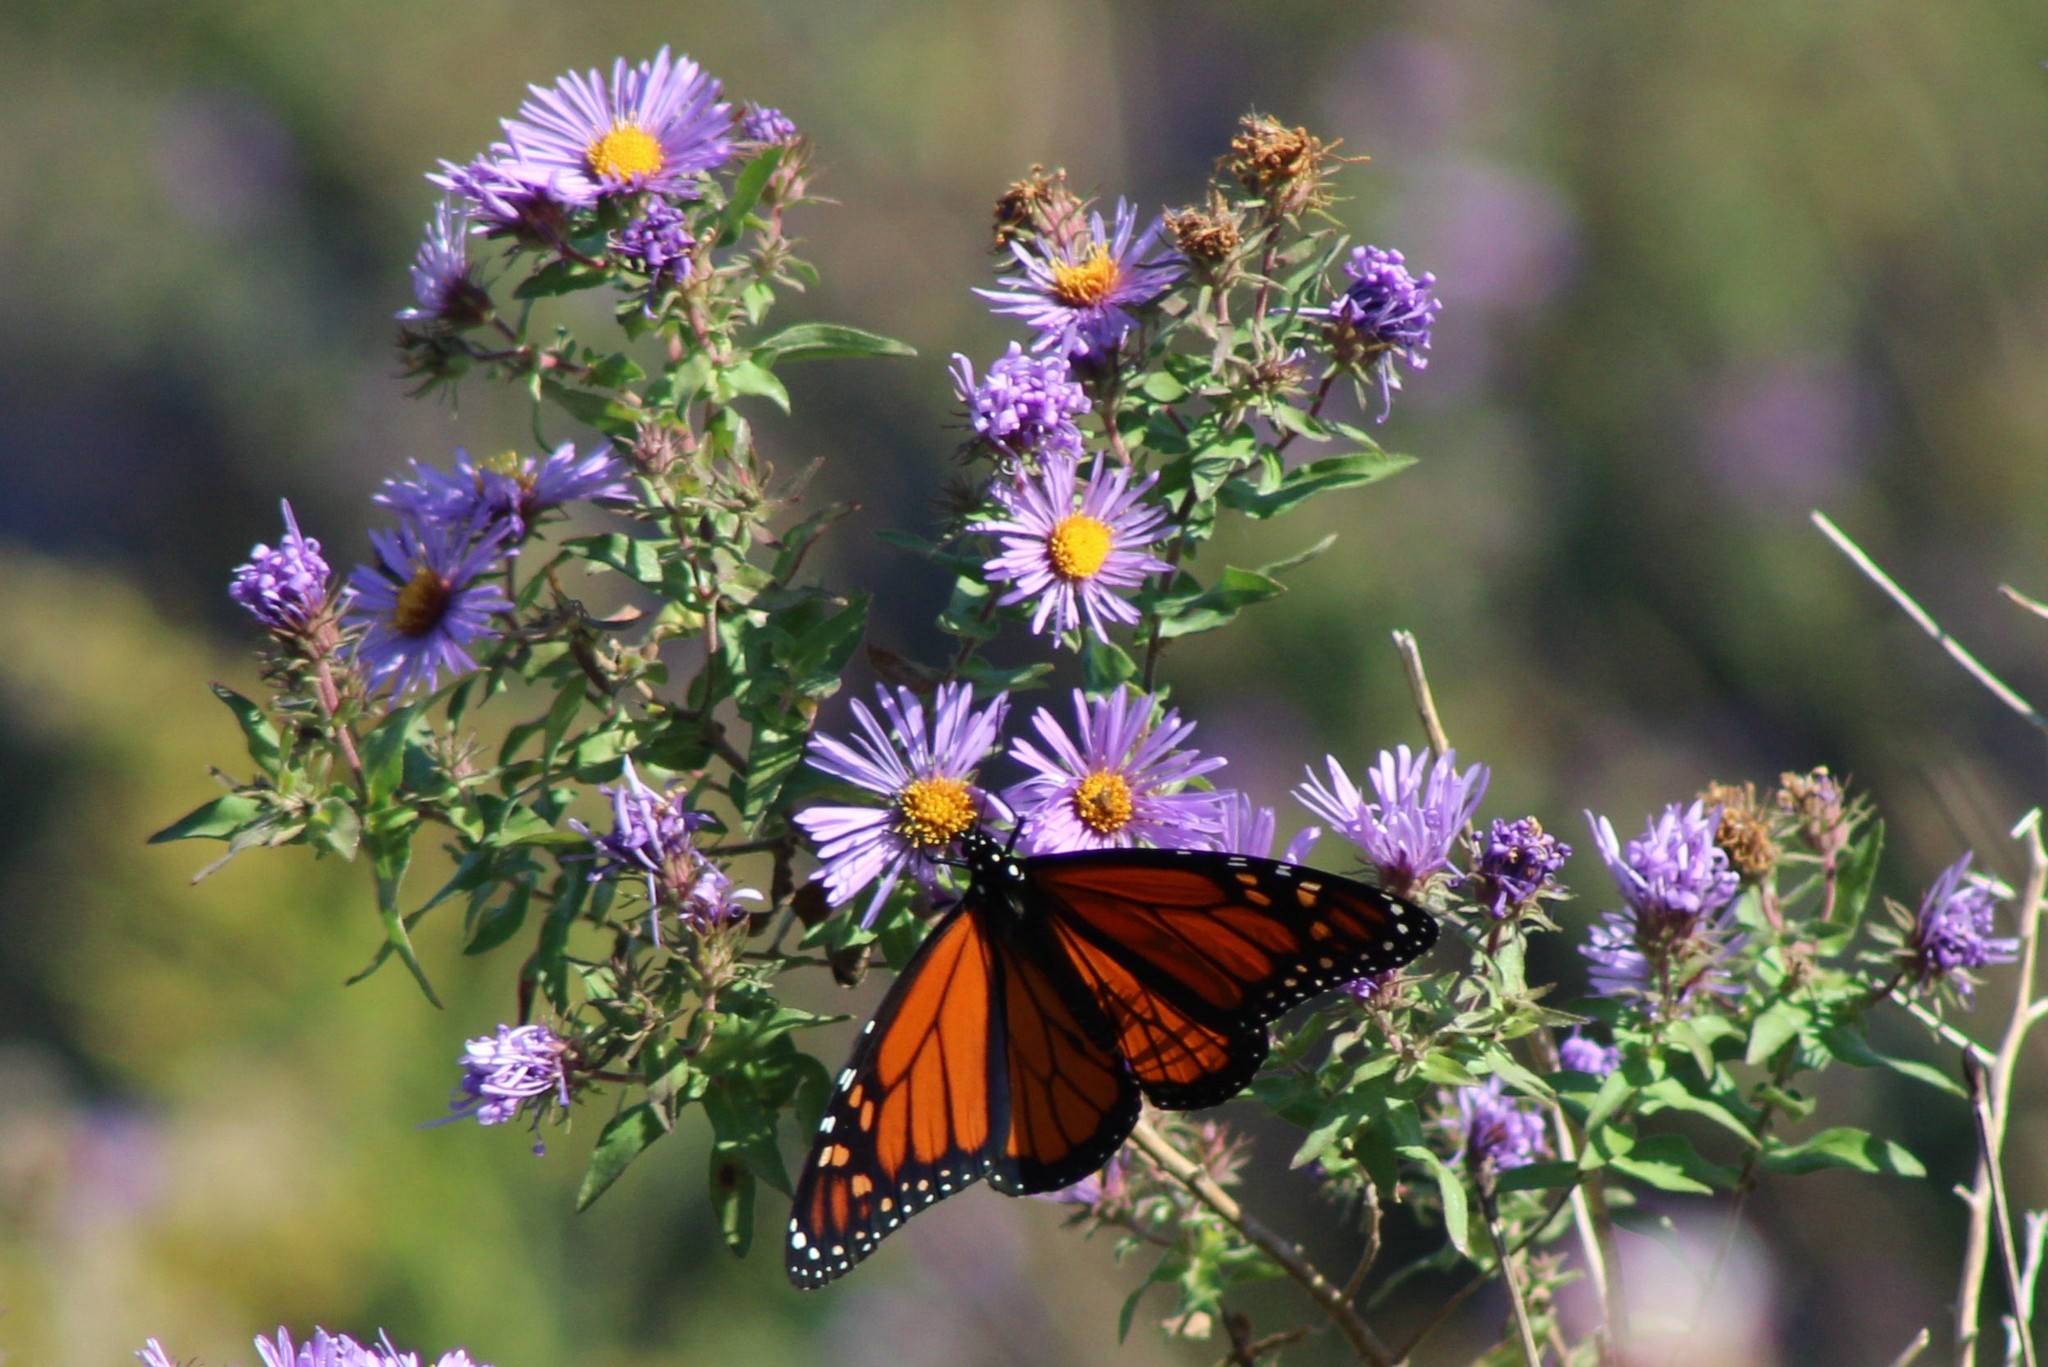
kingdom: Animalia
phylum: Arthropoda
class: Insecta
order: Lepidoptera
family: Nymphalidae
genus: Danaus
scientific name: Danaus plexippus
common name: Monarch
